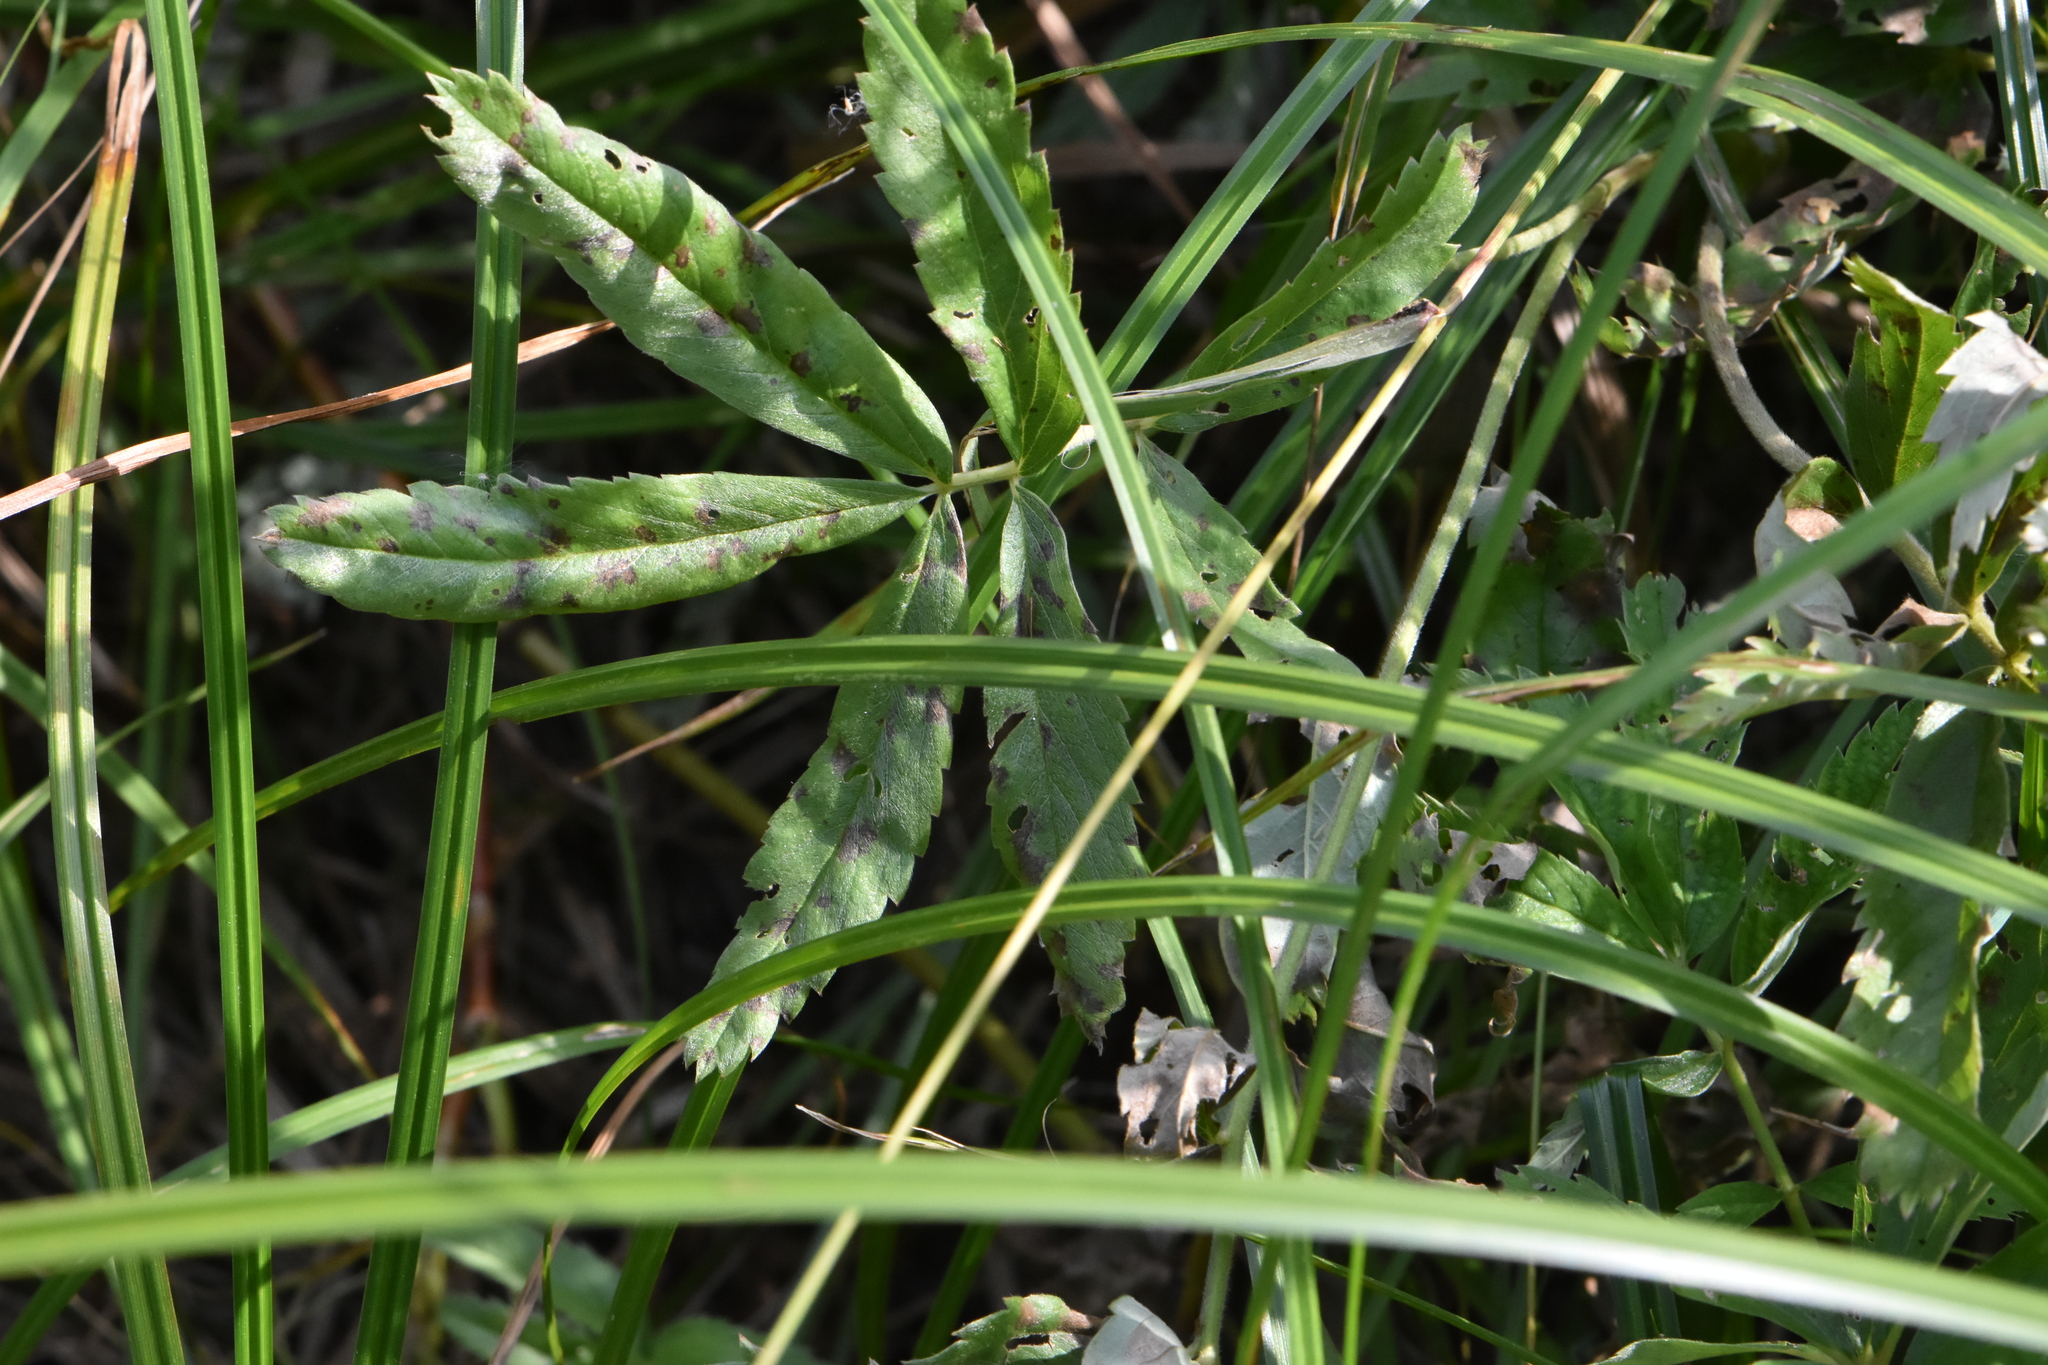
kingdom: Plantae
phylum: Tracheophyta
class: Magnoliopsida
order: Rosales
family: Rosaceae
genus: Comarum
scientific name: Comarum palustre
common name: Marsh cinquefoil
